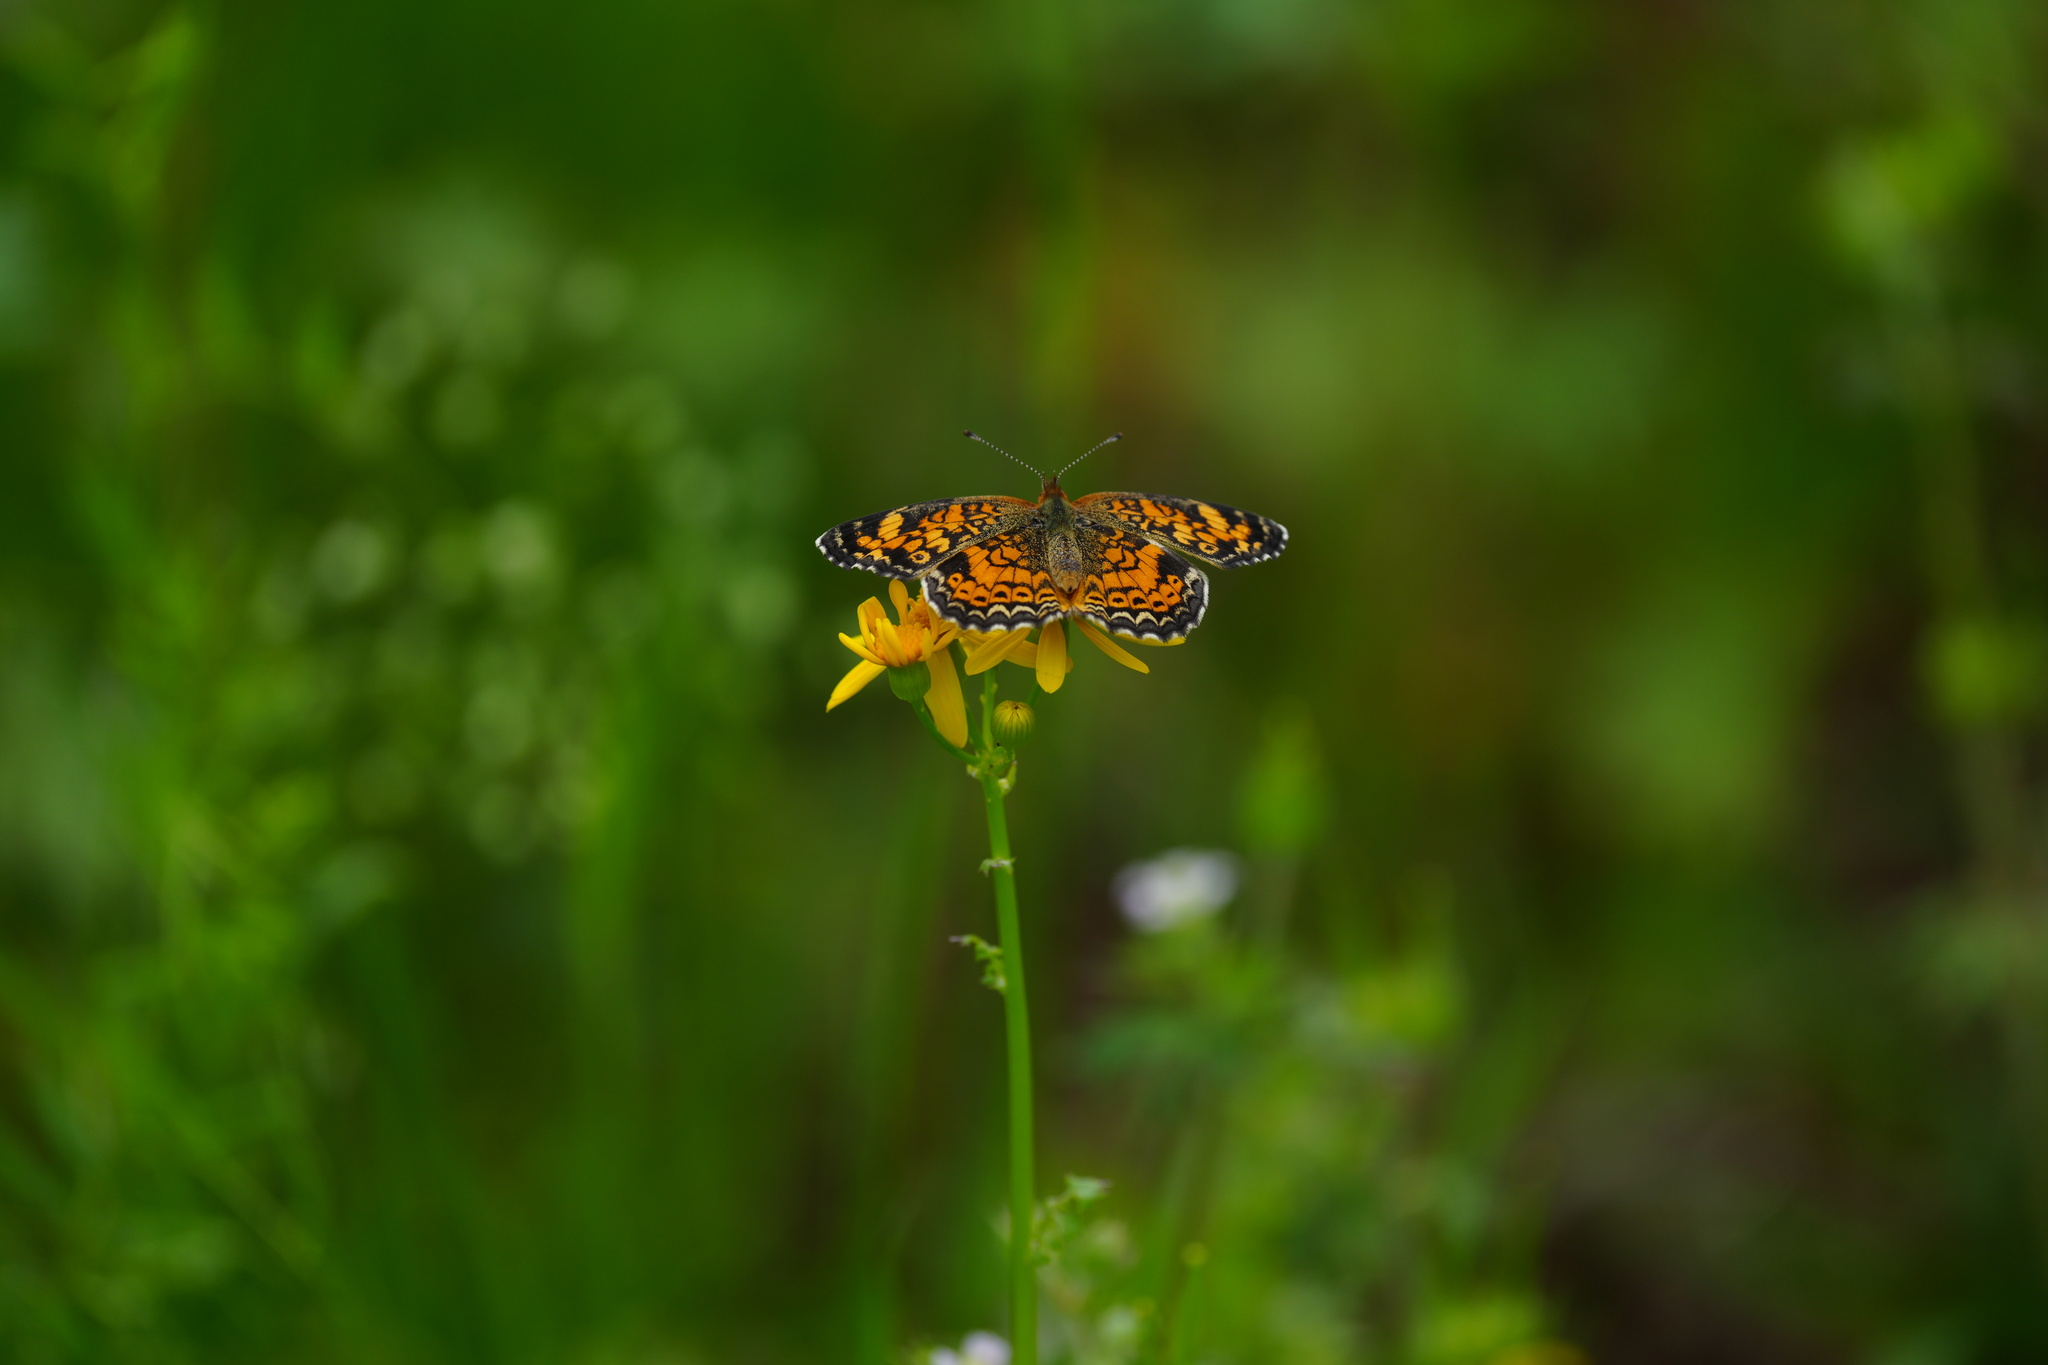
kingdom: Animalia
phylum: Arthropoda
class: Insecta
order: Lepidoptera
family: Nymphalidae
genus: Phyciodes
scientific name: Phyciodes tharos
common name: Pearl crescent
